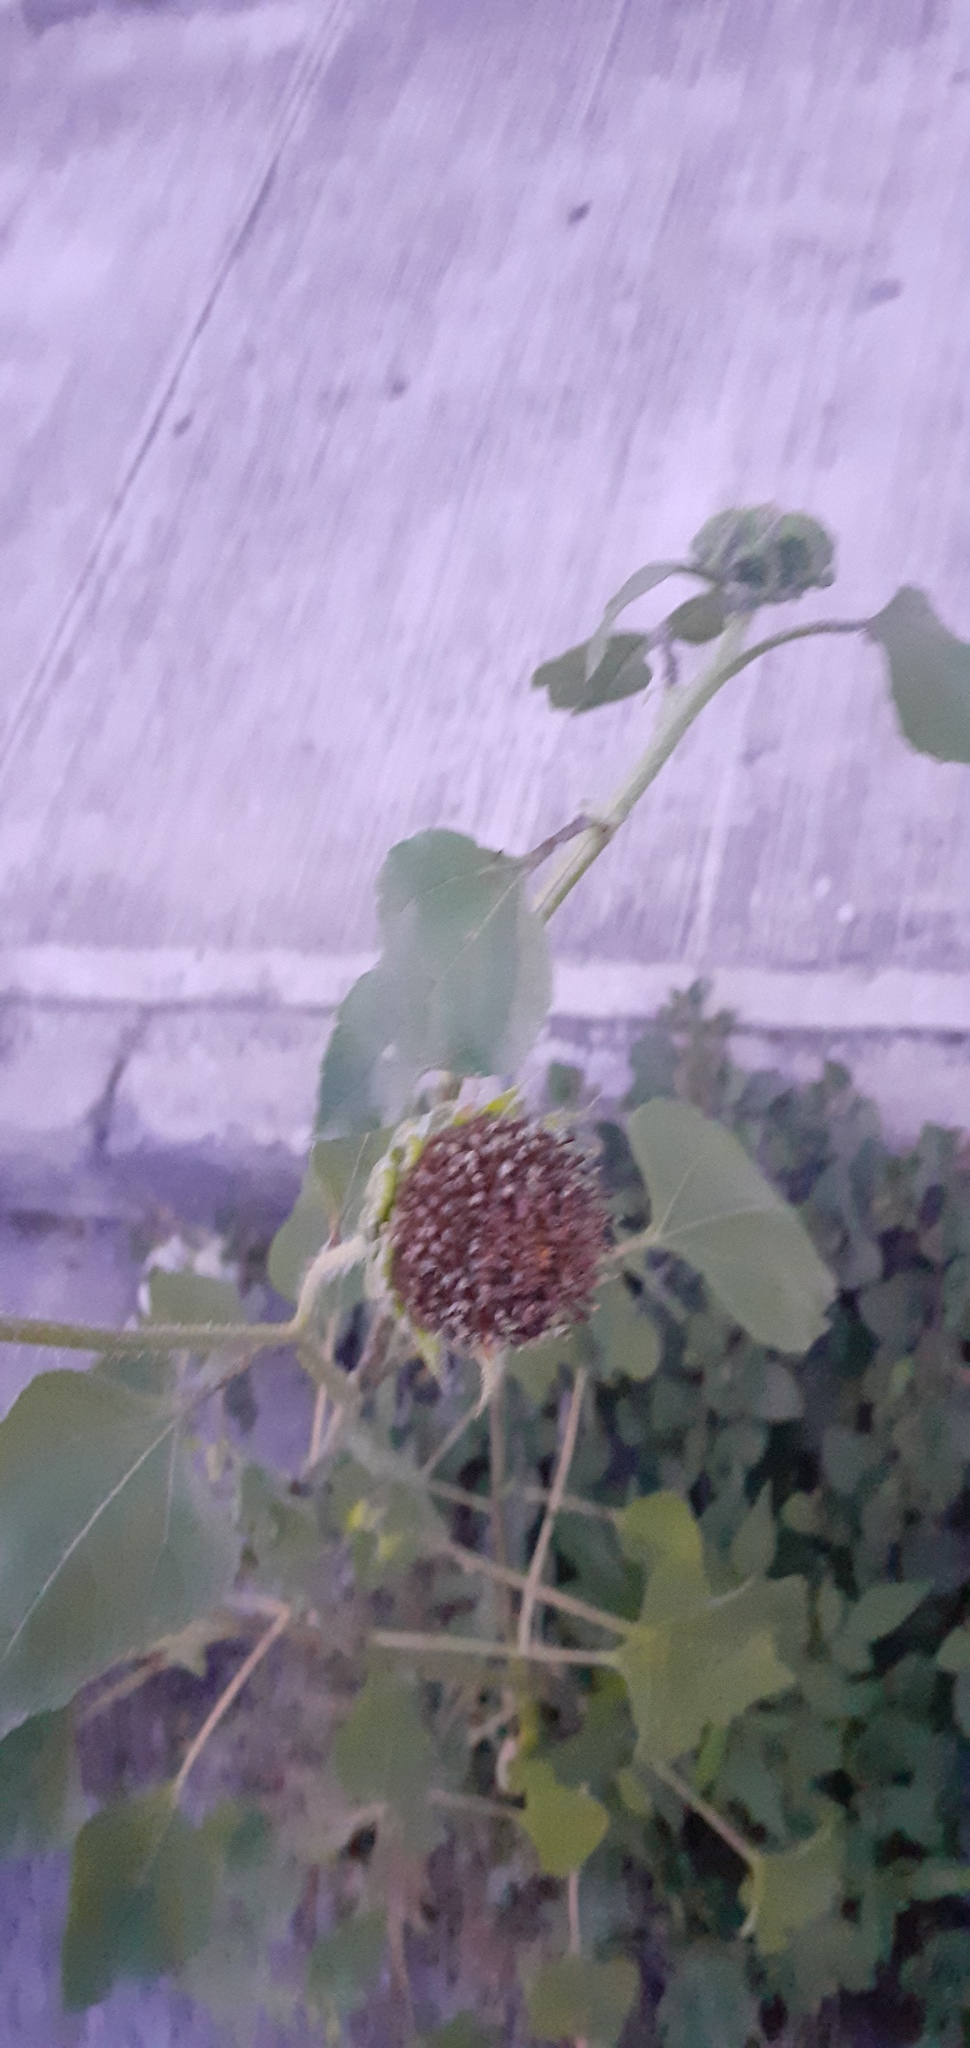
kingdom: Plantae
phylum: Tracheophyta
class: Magnoliopsida
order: Asterales
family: Asteraceae
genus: Helianthus
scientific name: Helianthus annuus
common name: Sunflower
